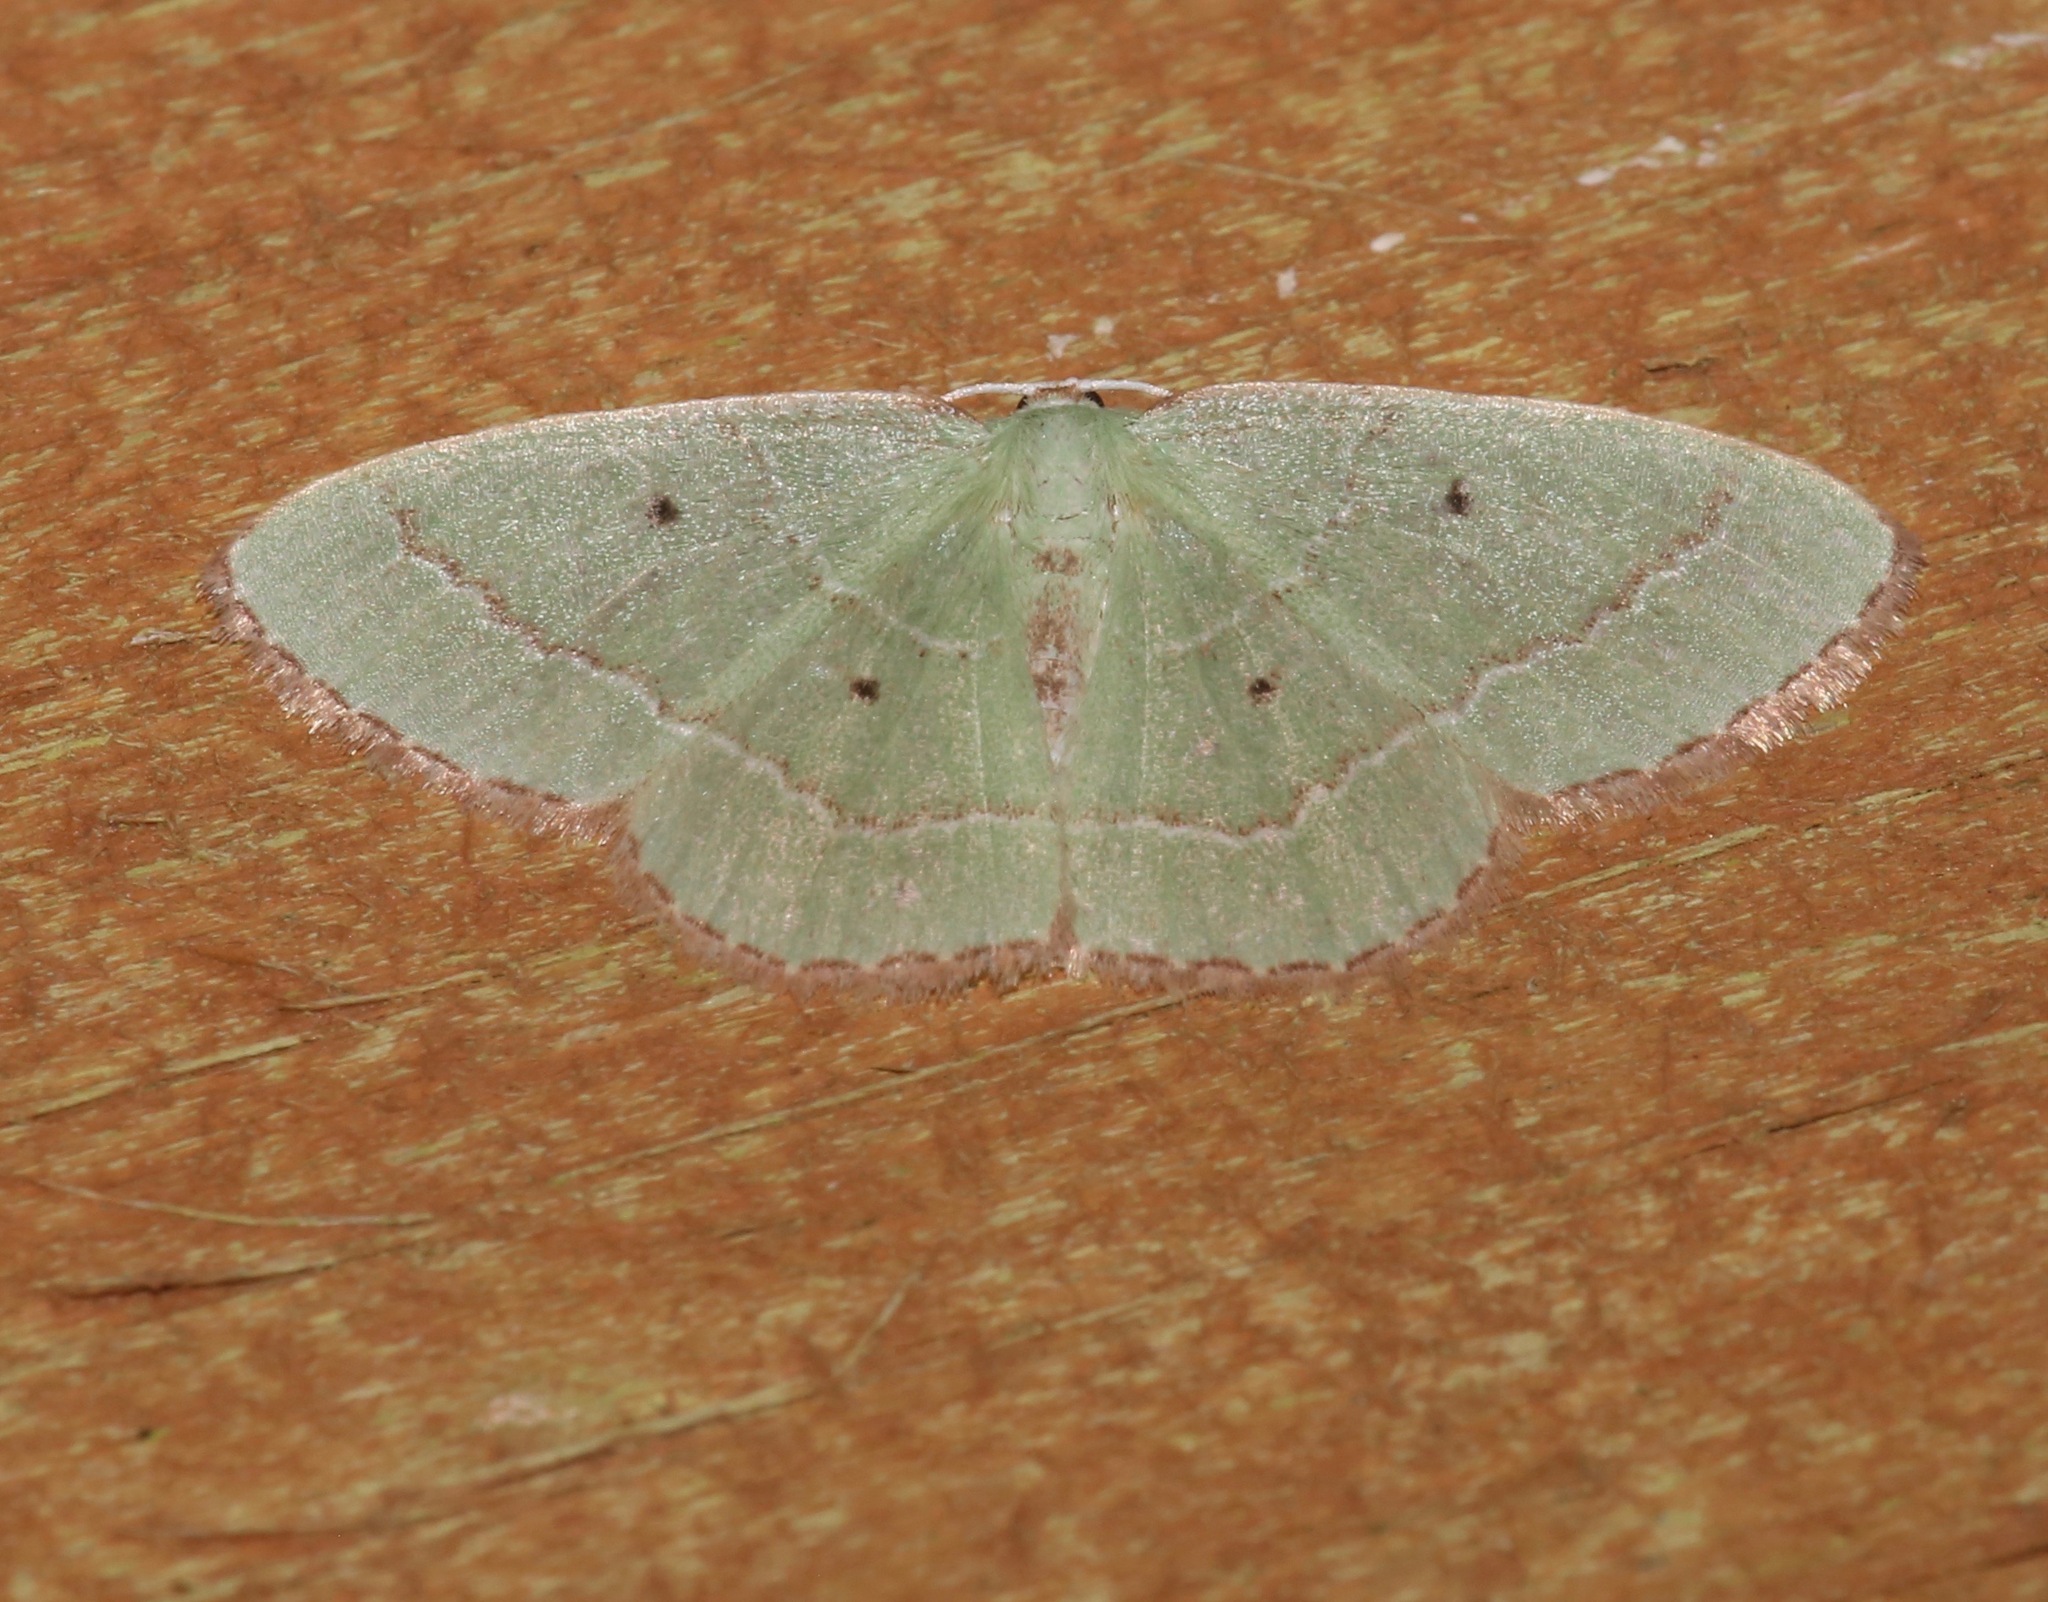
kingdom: Animalia
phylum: Arthropoda
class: Insecta
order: Lepidoptera
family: Geometridae
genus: Nemoria
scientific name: Nemoria elfa
